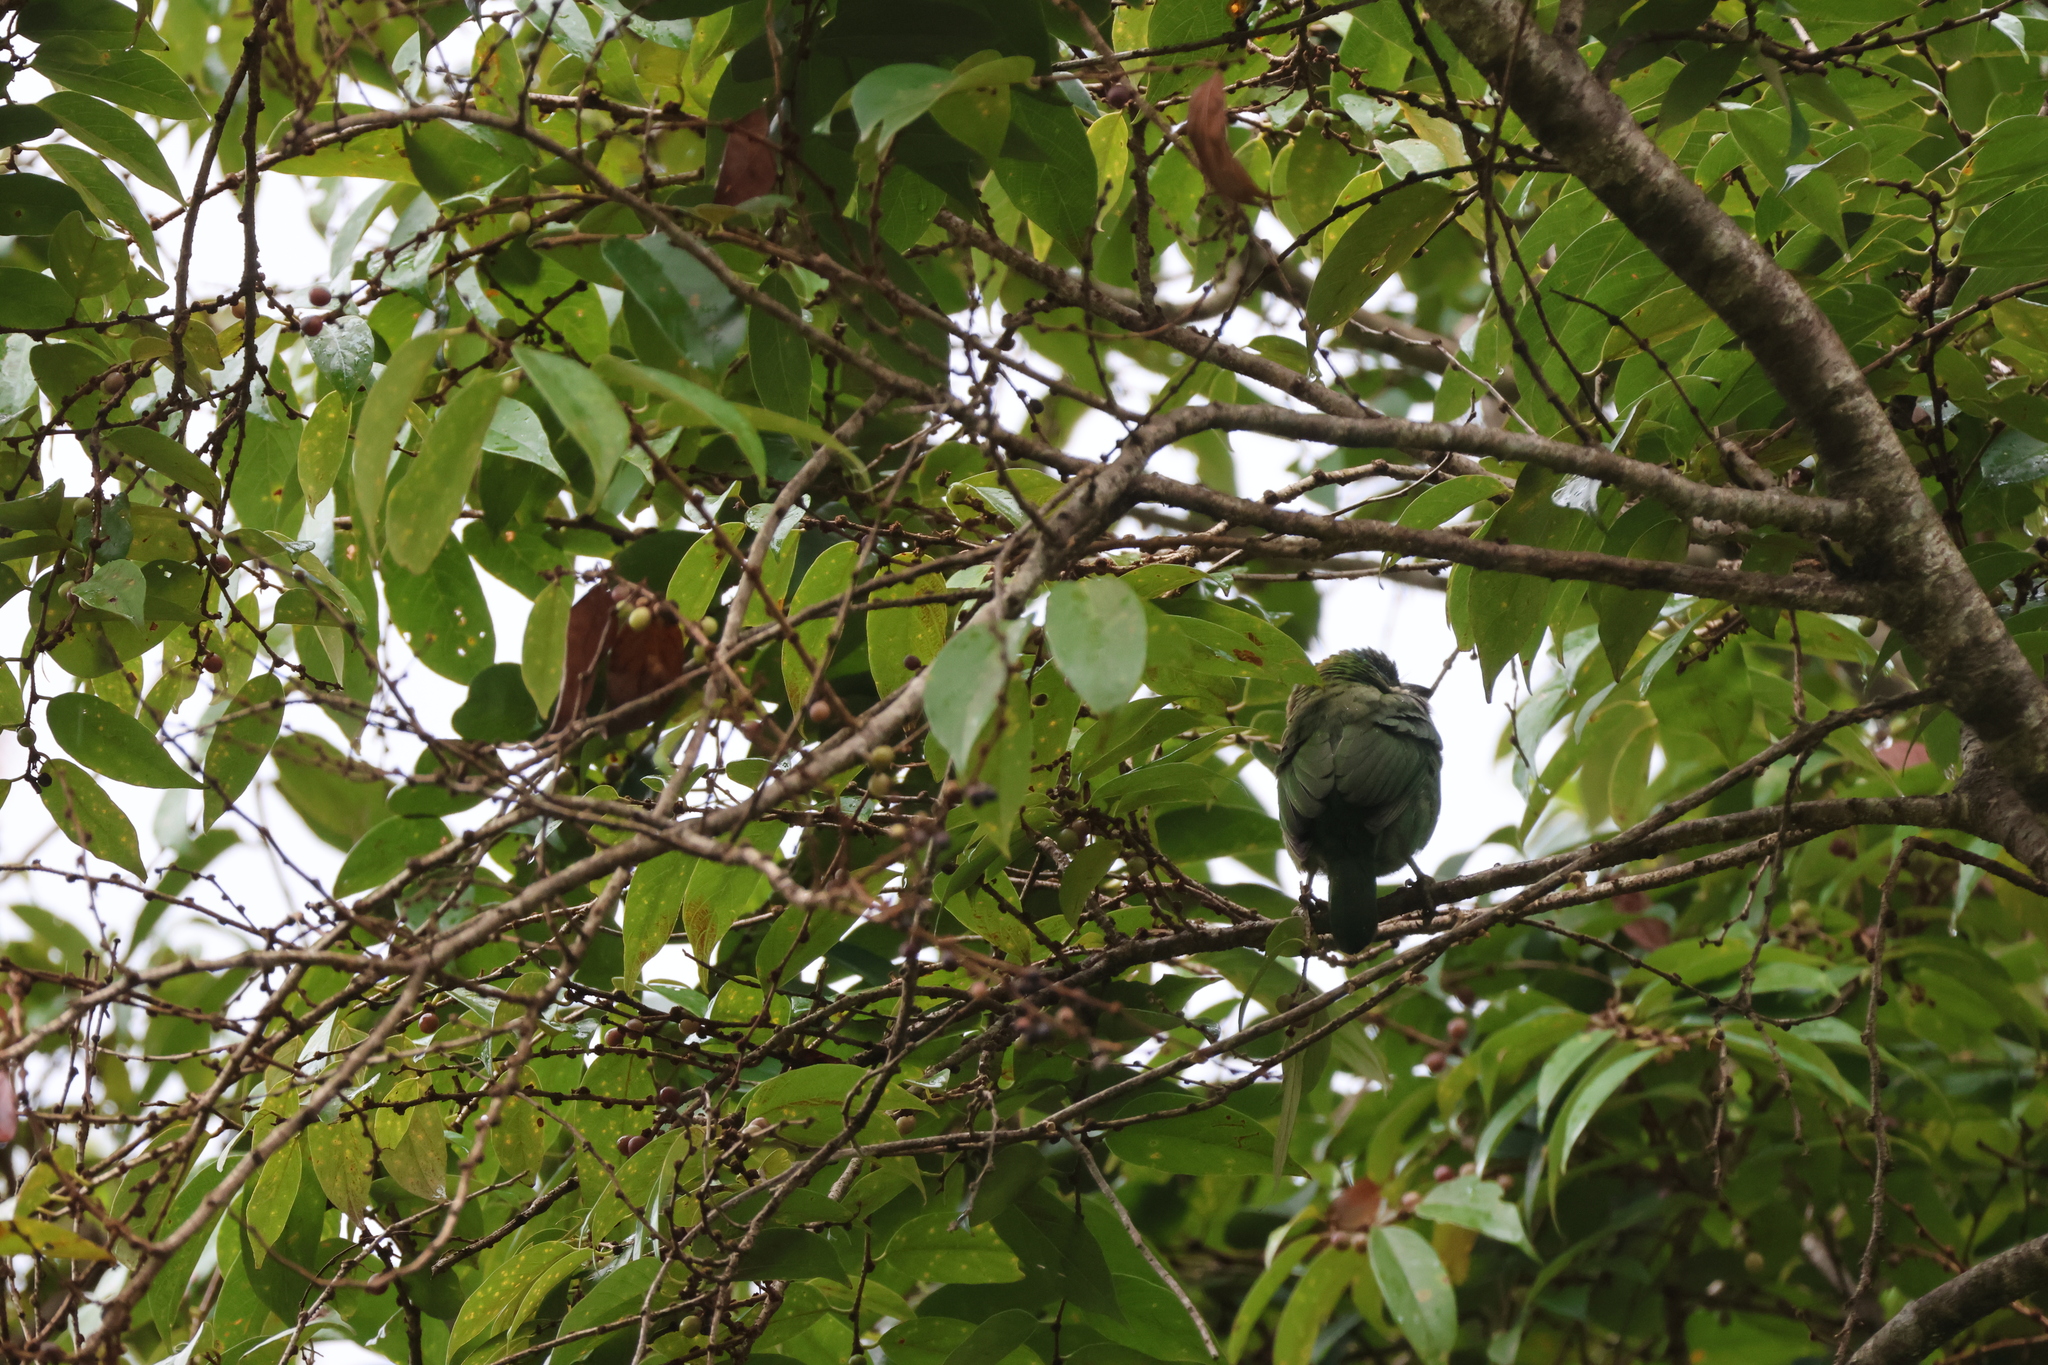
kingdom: Animalia
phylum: Chordata
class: Aves
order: Piciformes
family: Megalaimidae
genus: Psilopogon
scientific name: Psilopogon monticola
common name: Mountain barbet
